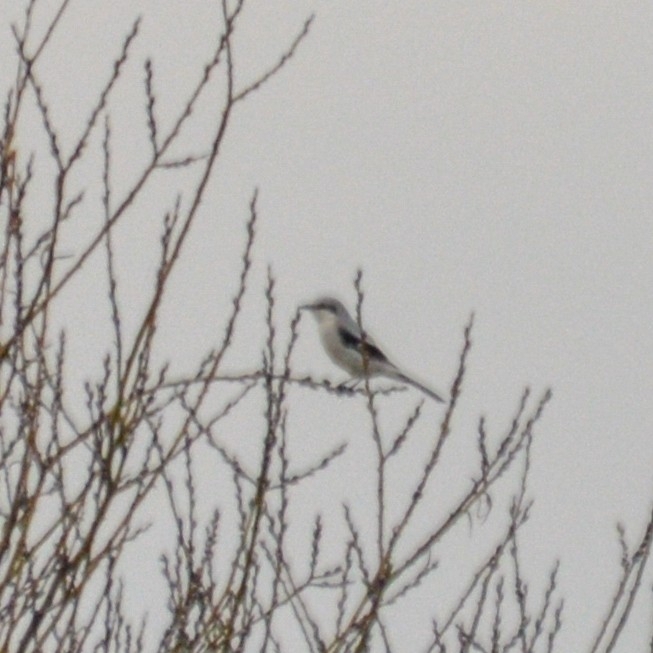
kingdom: Animalia
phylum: Chordata
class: Aves
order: Passeriformes
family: Laniidae
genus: Lanius
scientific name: Lanius excubitor
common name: Great grey shrike
